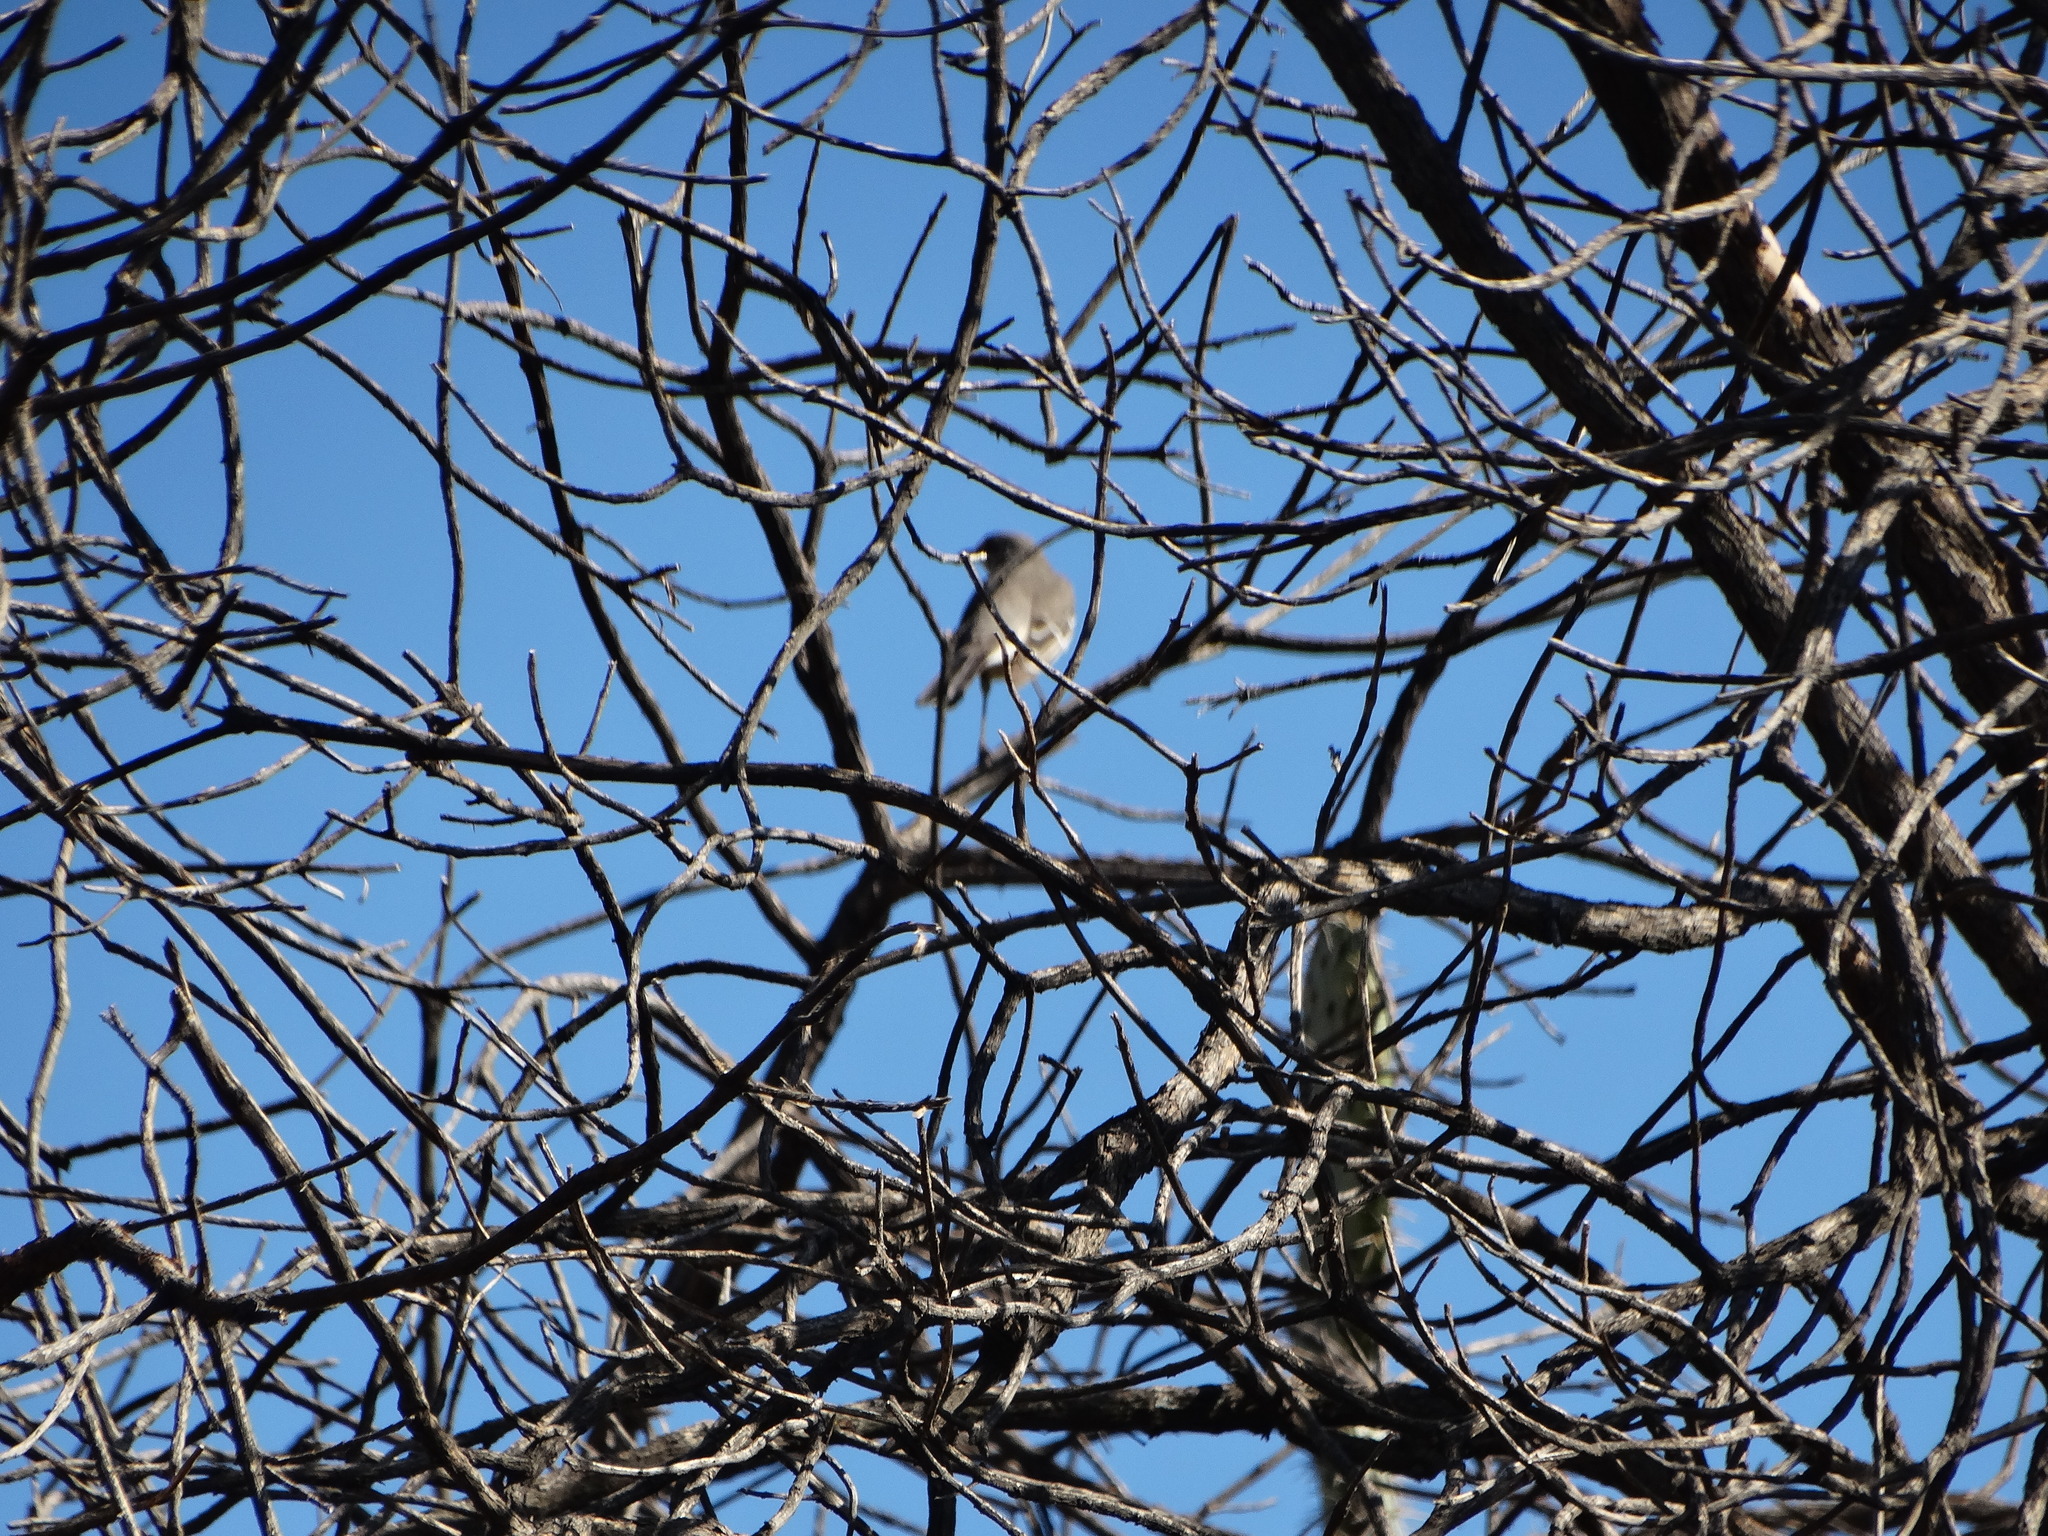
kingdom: Animalia
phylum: Chordata
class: Aves
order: Passeriformes
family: Mimidae
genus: Mimus
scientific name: Mimus polyglottos
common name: Northern mockingbird
